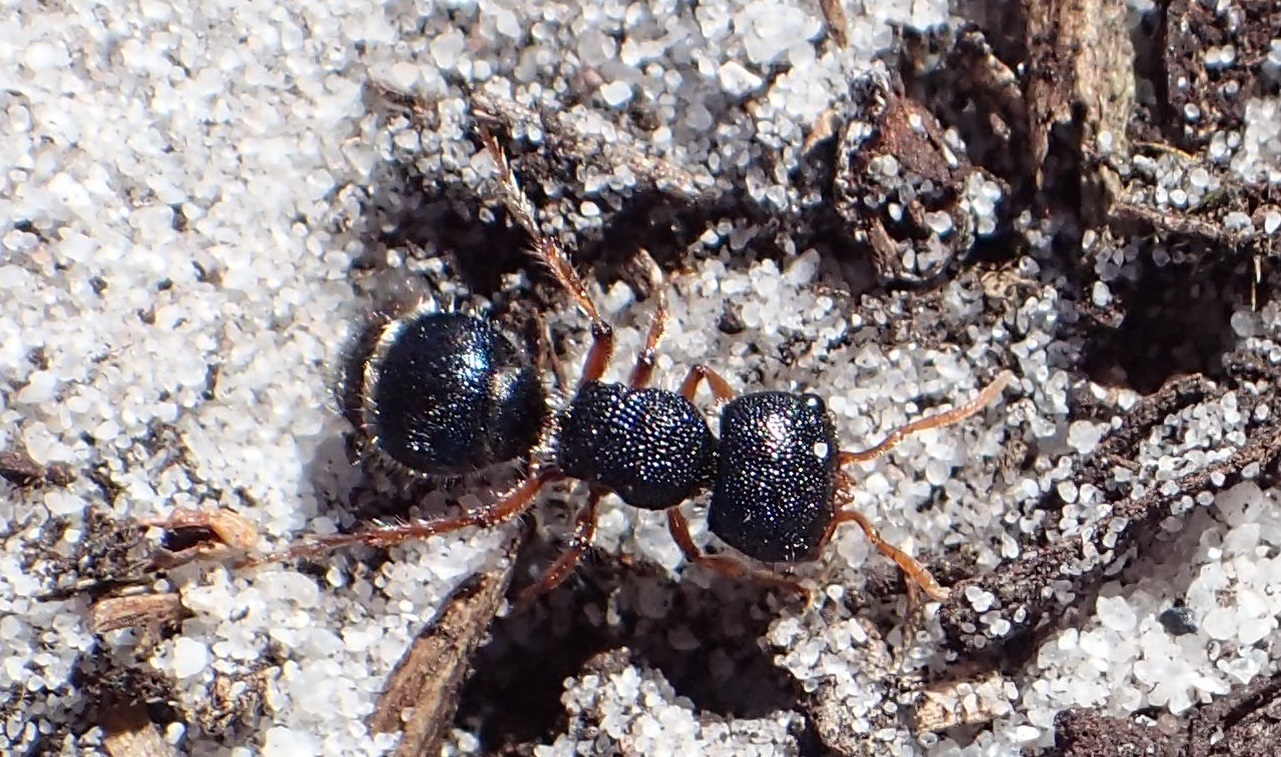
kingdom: Animalia
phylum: Arthropoda
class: Insecta
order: Hymenoptera
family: Mutillidae
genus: Ephutomorpha
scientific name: Ephutomorpha
